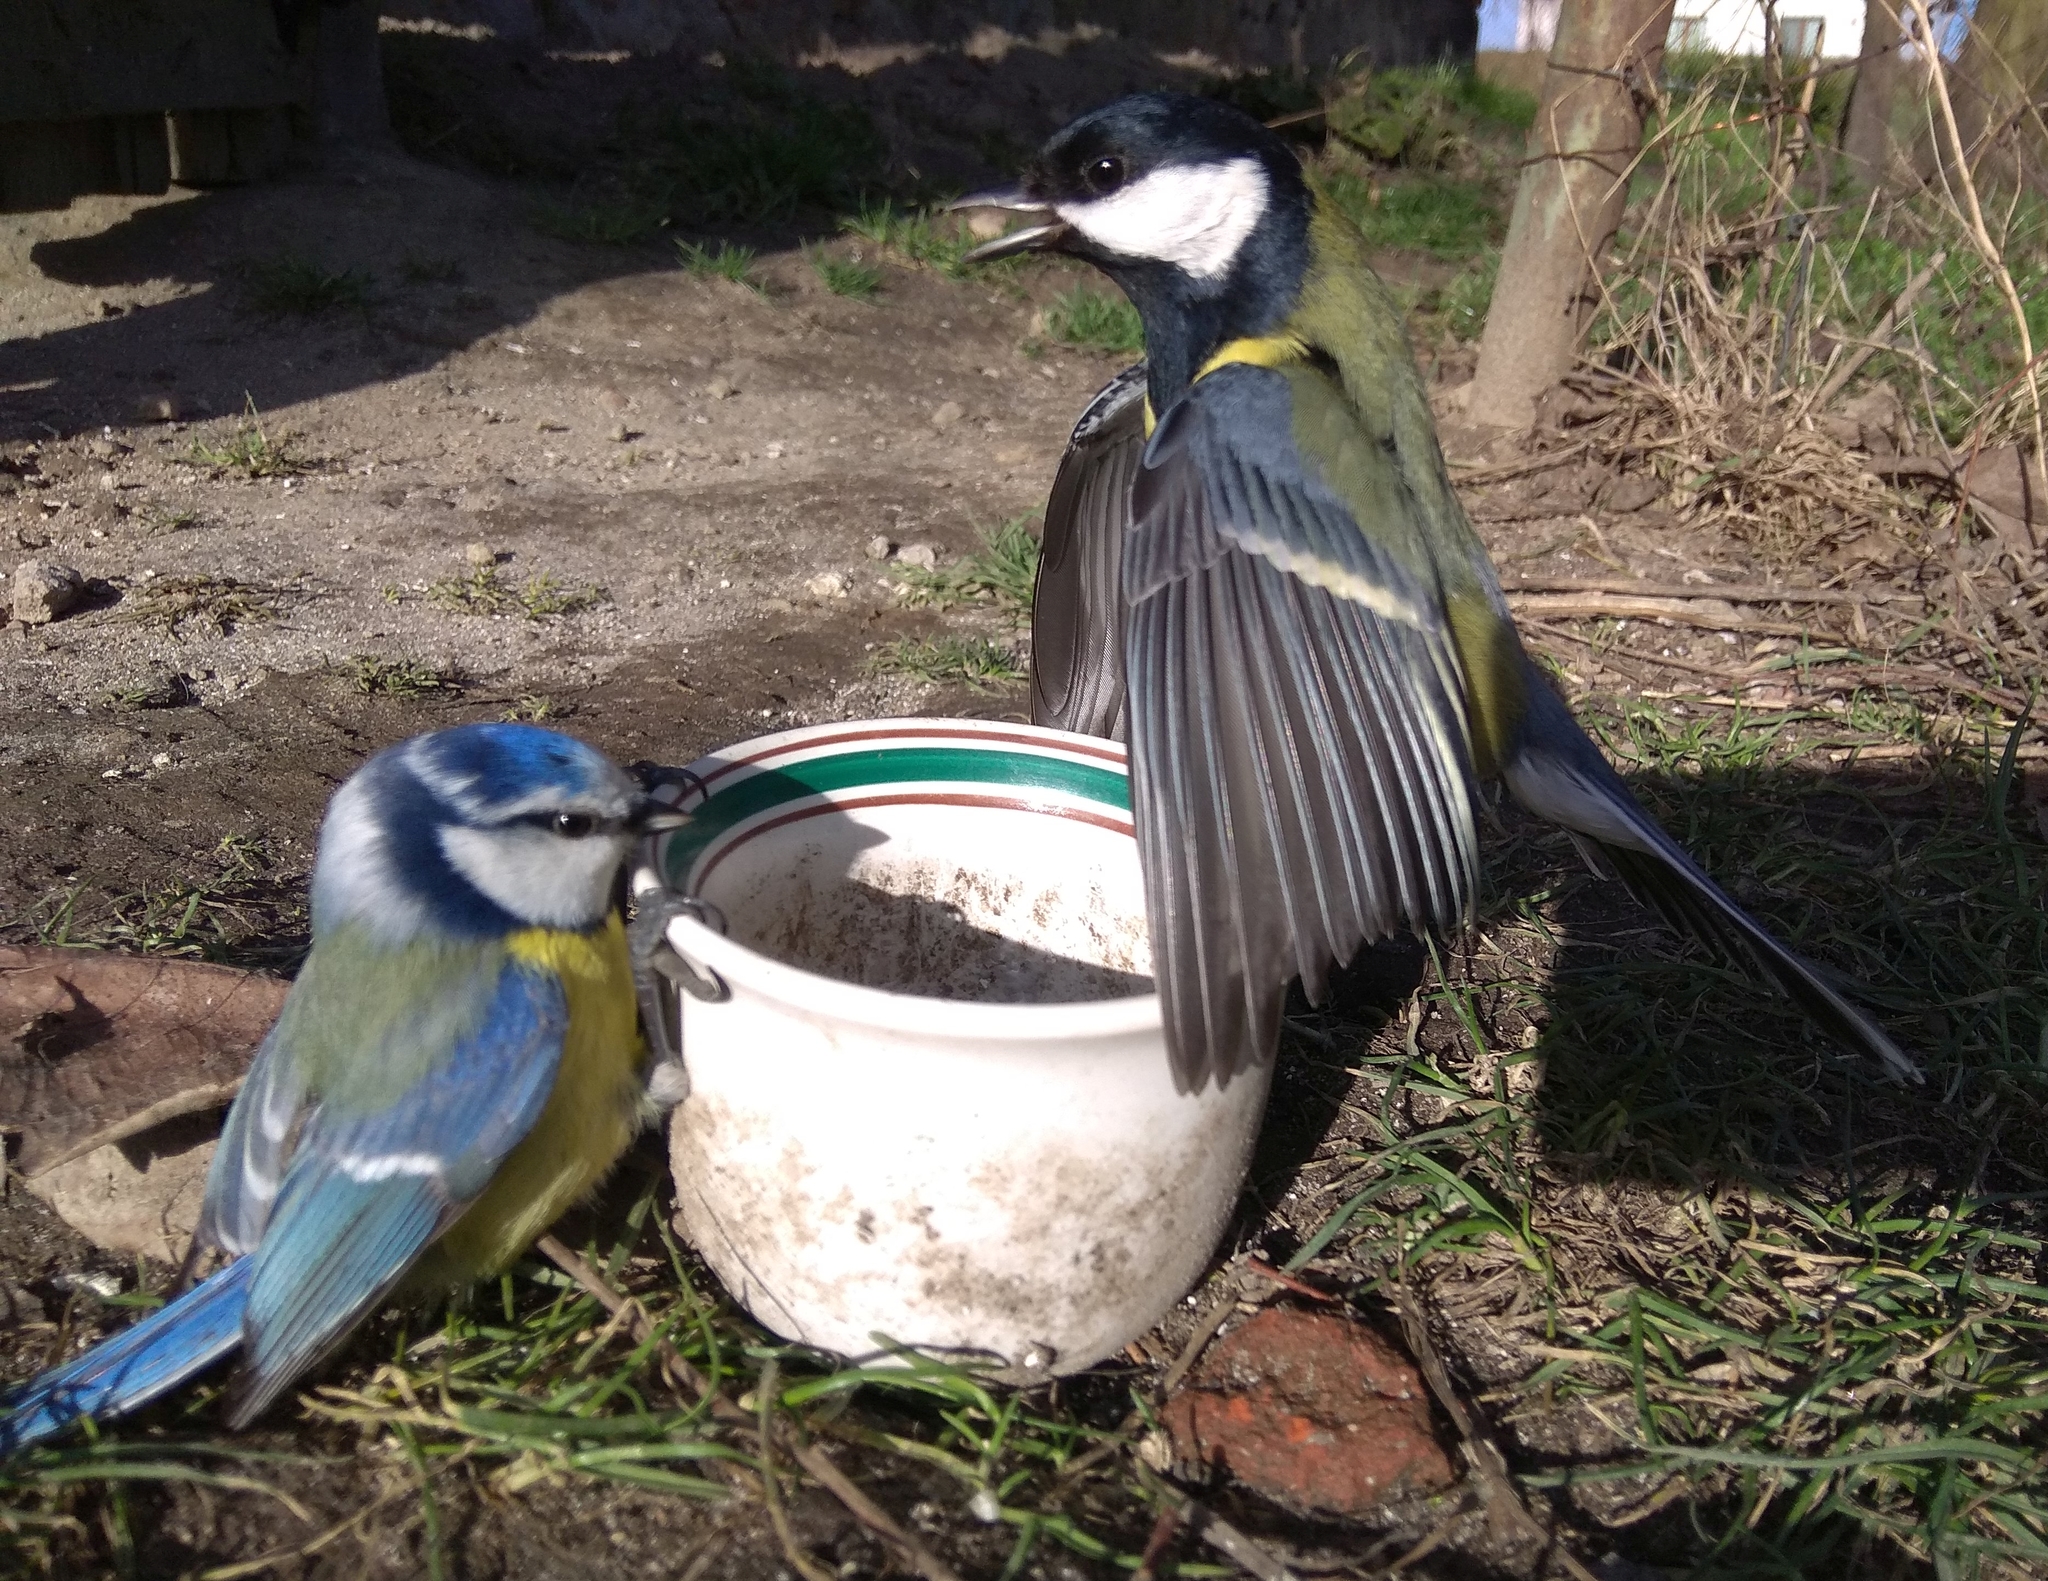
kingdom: Animalia
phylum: Chordata
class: Aves
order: Passeriformes
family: Paridae
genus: Parus
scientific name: Parus major
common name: Great tit
